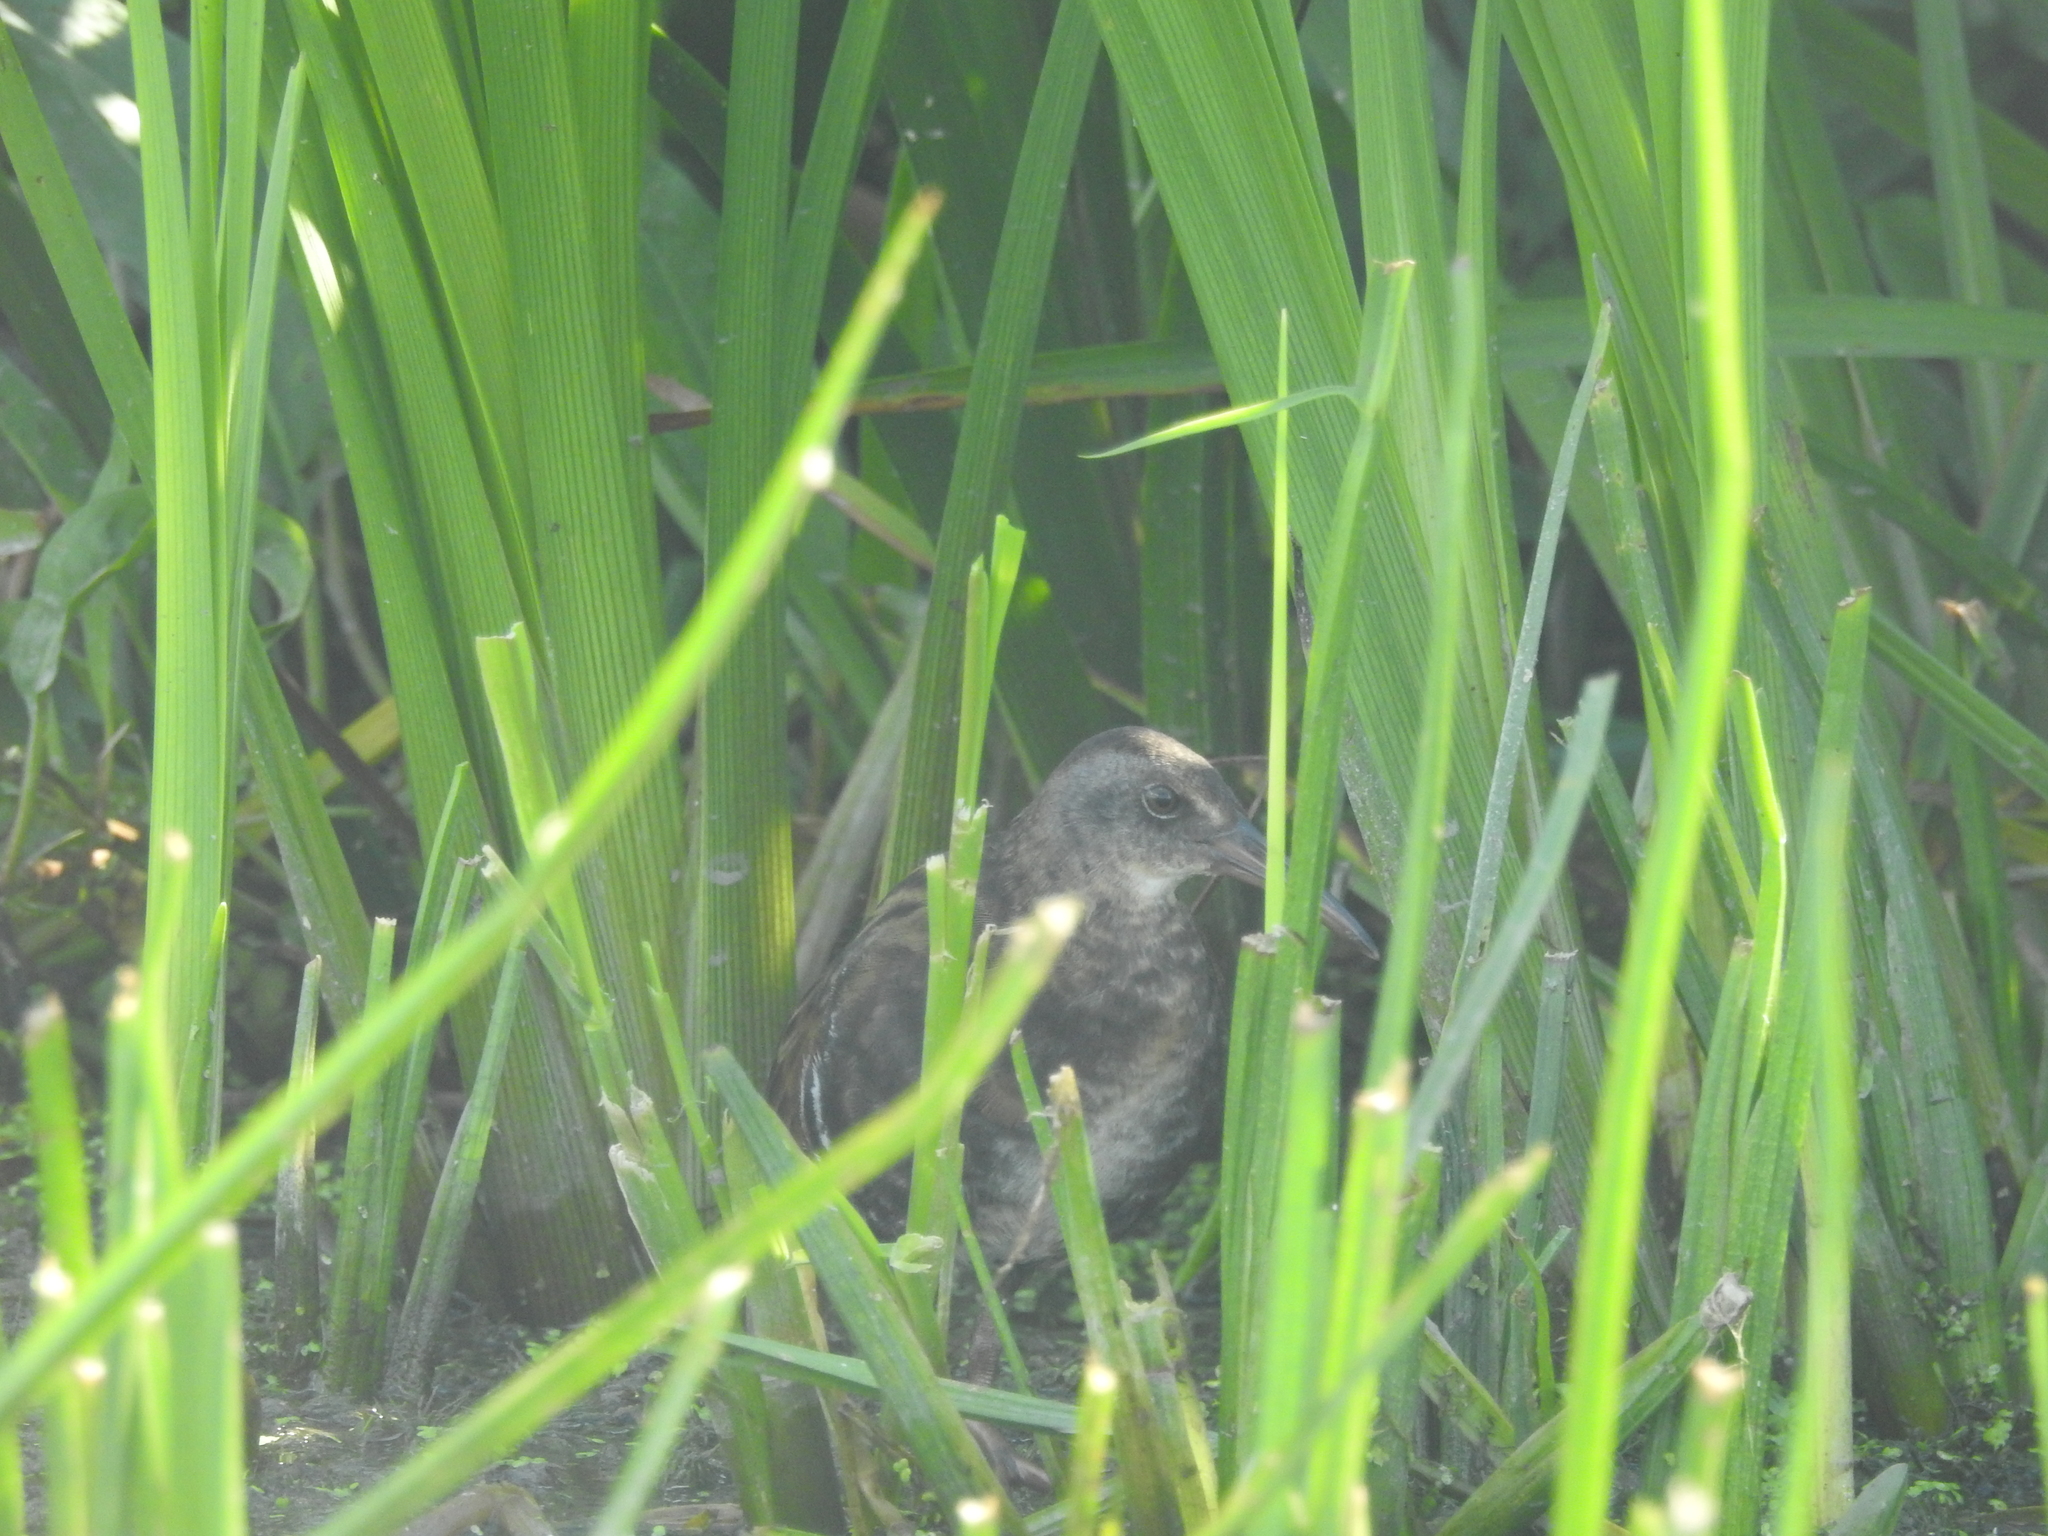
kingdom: Animalia
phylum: Chordata
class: Aves
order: Gruiformes
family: Rallidae
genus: Rallus
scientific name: Rallus limicola
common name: Virginia rail
